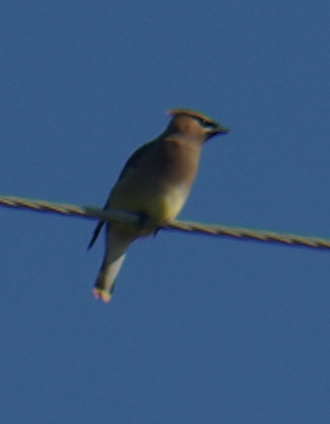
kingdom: Animalia
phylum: Chordata
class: Aves
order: Passeriformes
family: Bombycillidae
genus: Bombycilla
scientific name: Bombycilla cedrorum
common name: Cedar waxwing
